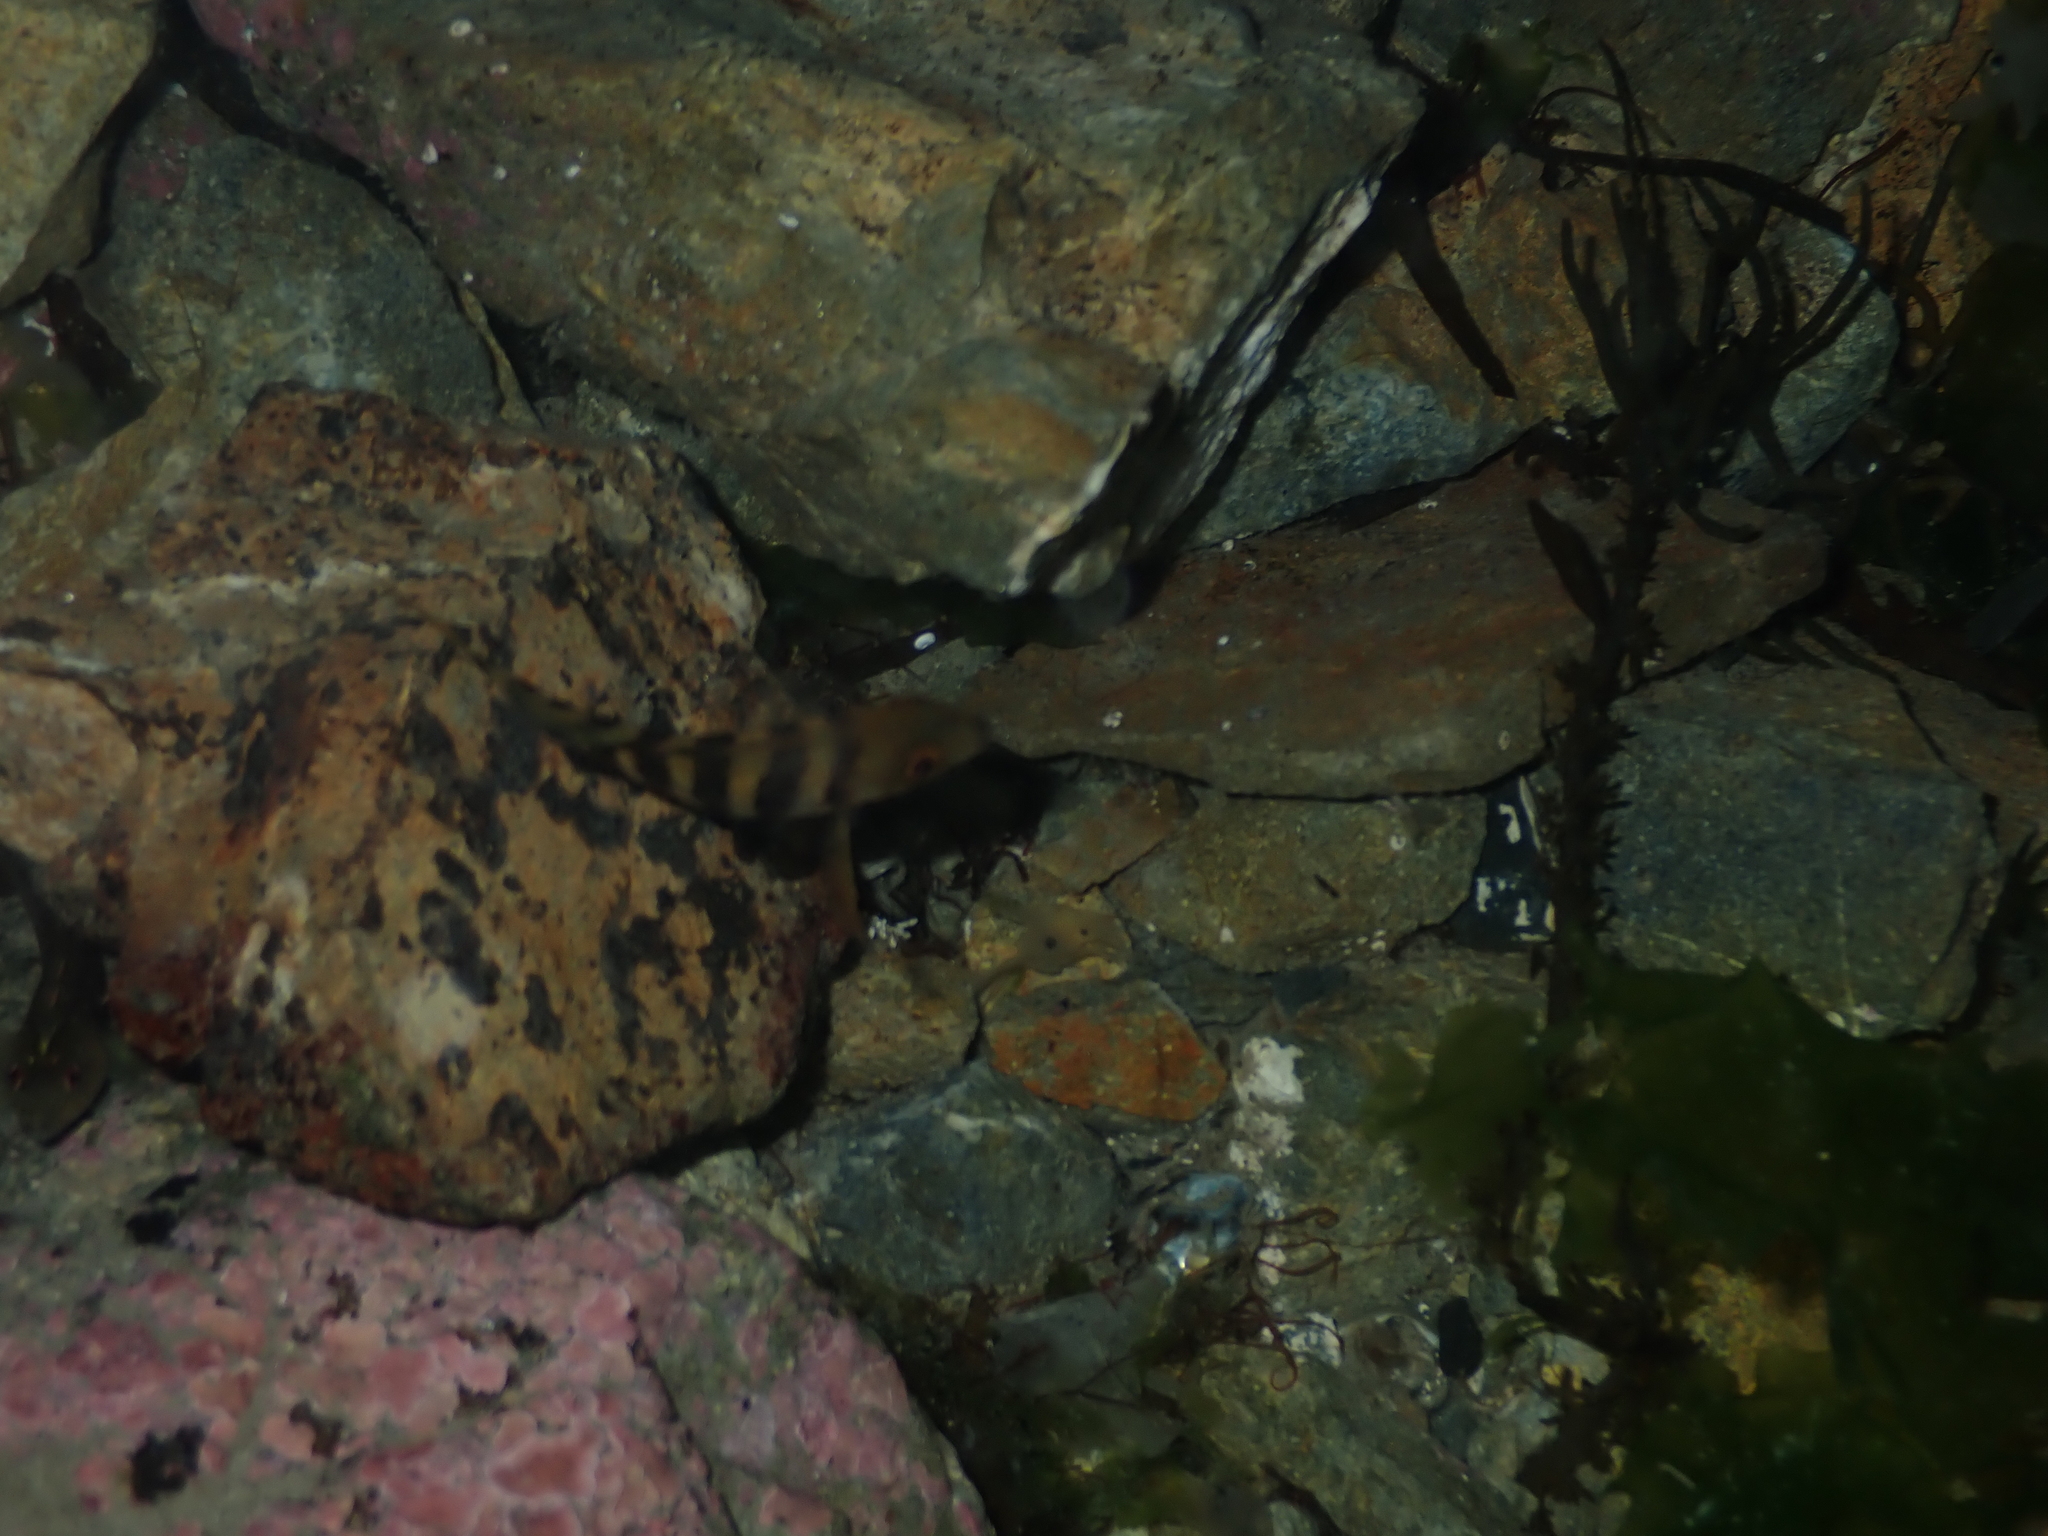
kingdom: Animalia
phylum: Chordata
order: Perciformes
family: Cheilodactylidae
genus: Cheilodactylus
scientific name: Cheilodactylus spectabilis
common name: Red moki
